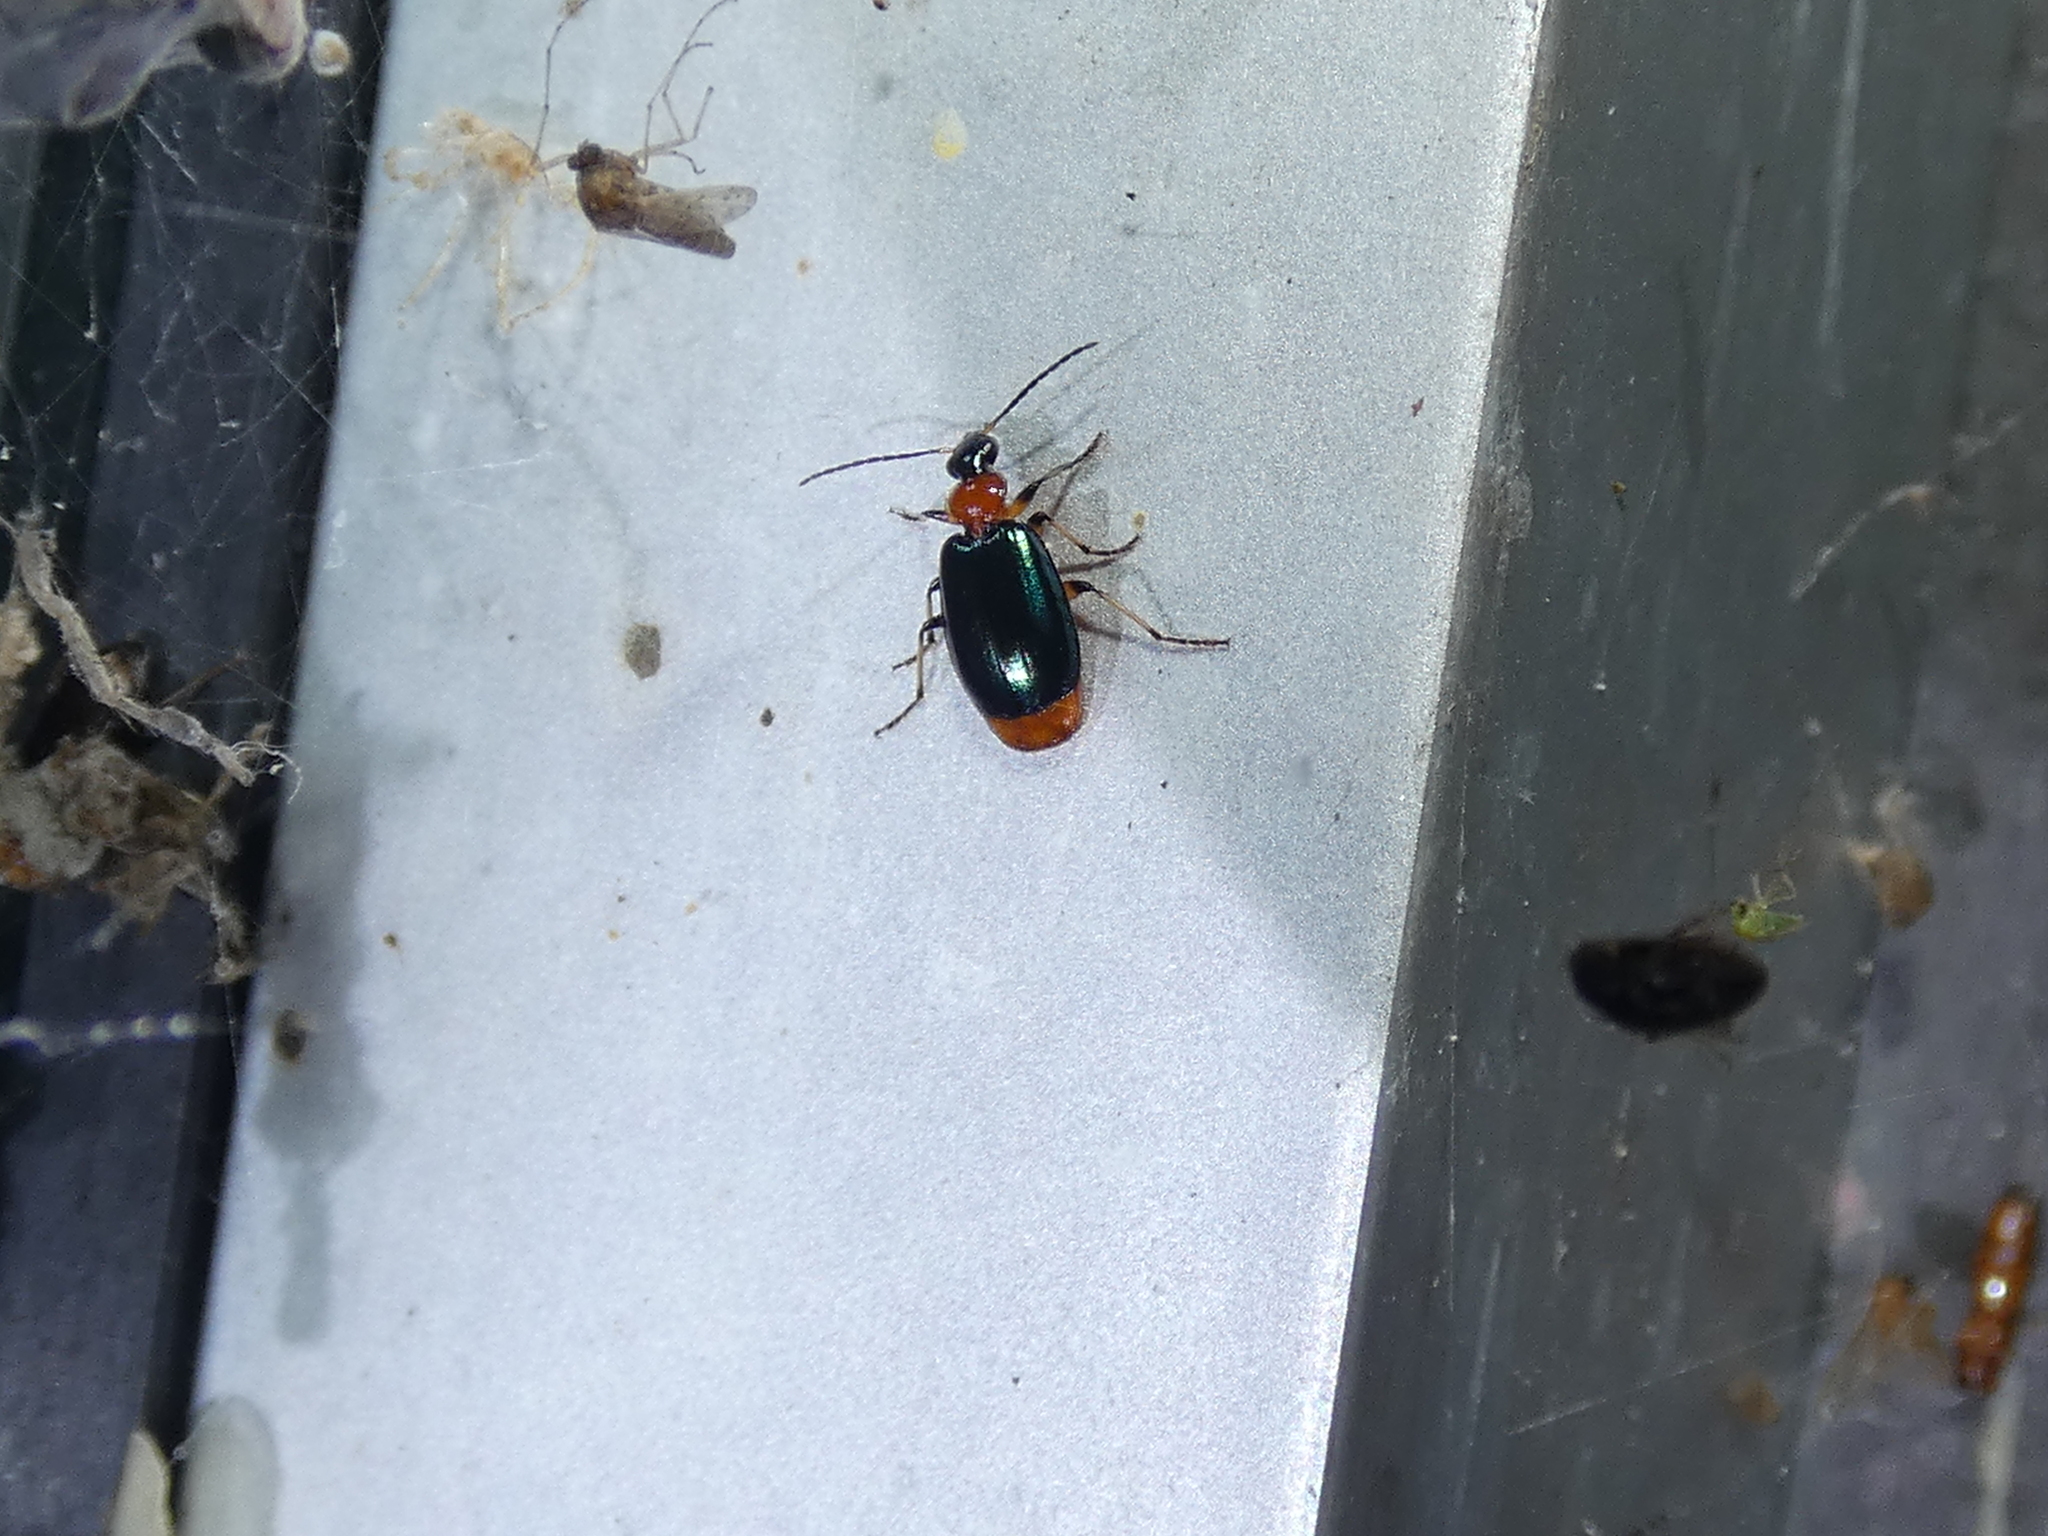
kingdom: Animalia
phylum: Arthropoda
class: Insecta
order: Coleoptera
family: Carabidae
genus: Lebia
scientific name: Lebia viridipennis
